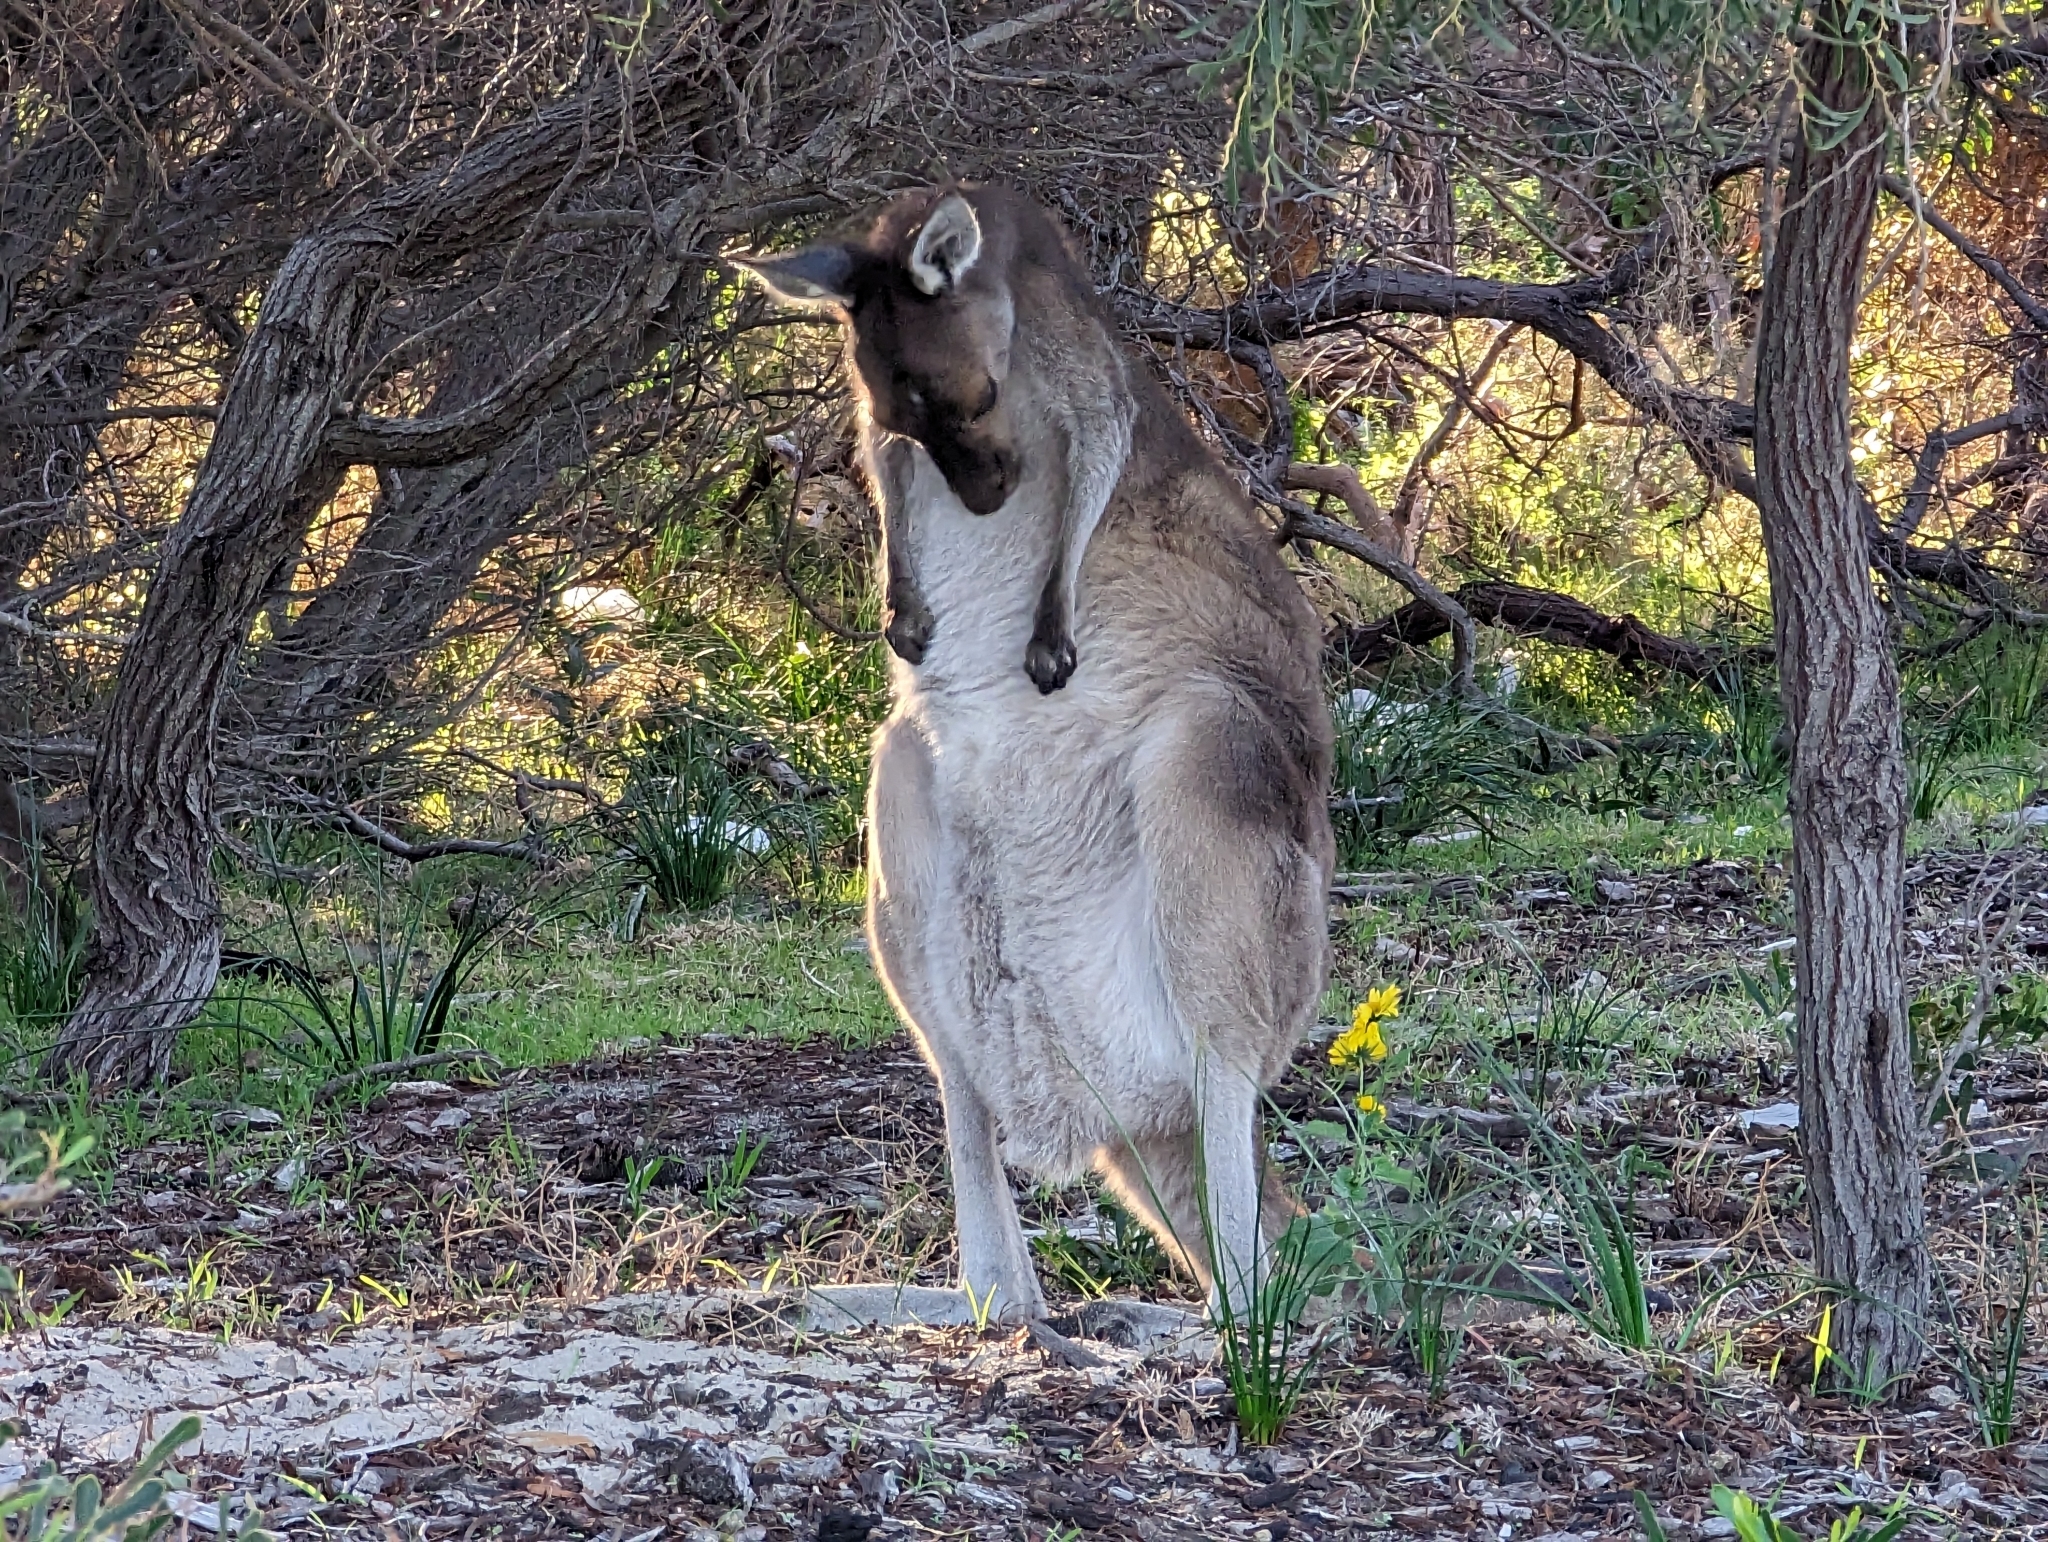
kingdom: Animalia
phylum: Chordata
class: Mammalia
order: Diprotodontia
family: Macropodidae
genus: Macropus
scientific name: Macropus fuliginosus
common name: Western grey kangaroo
